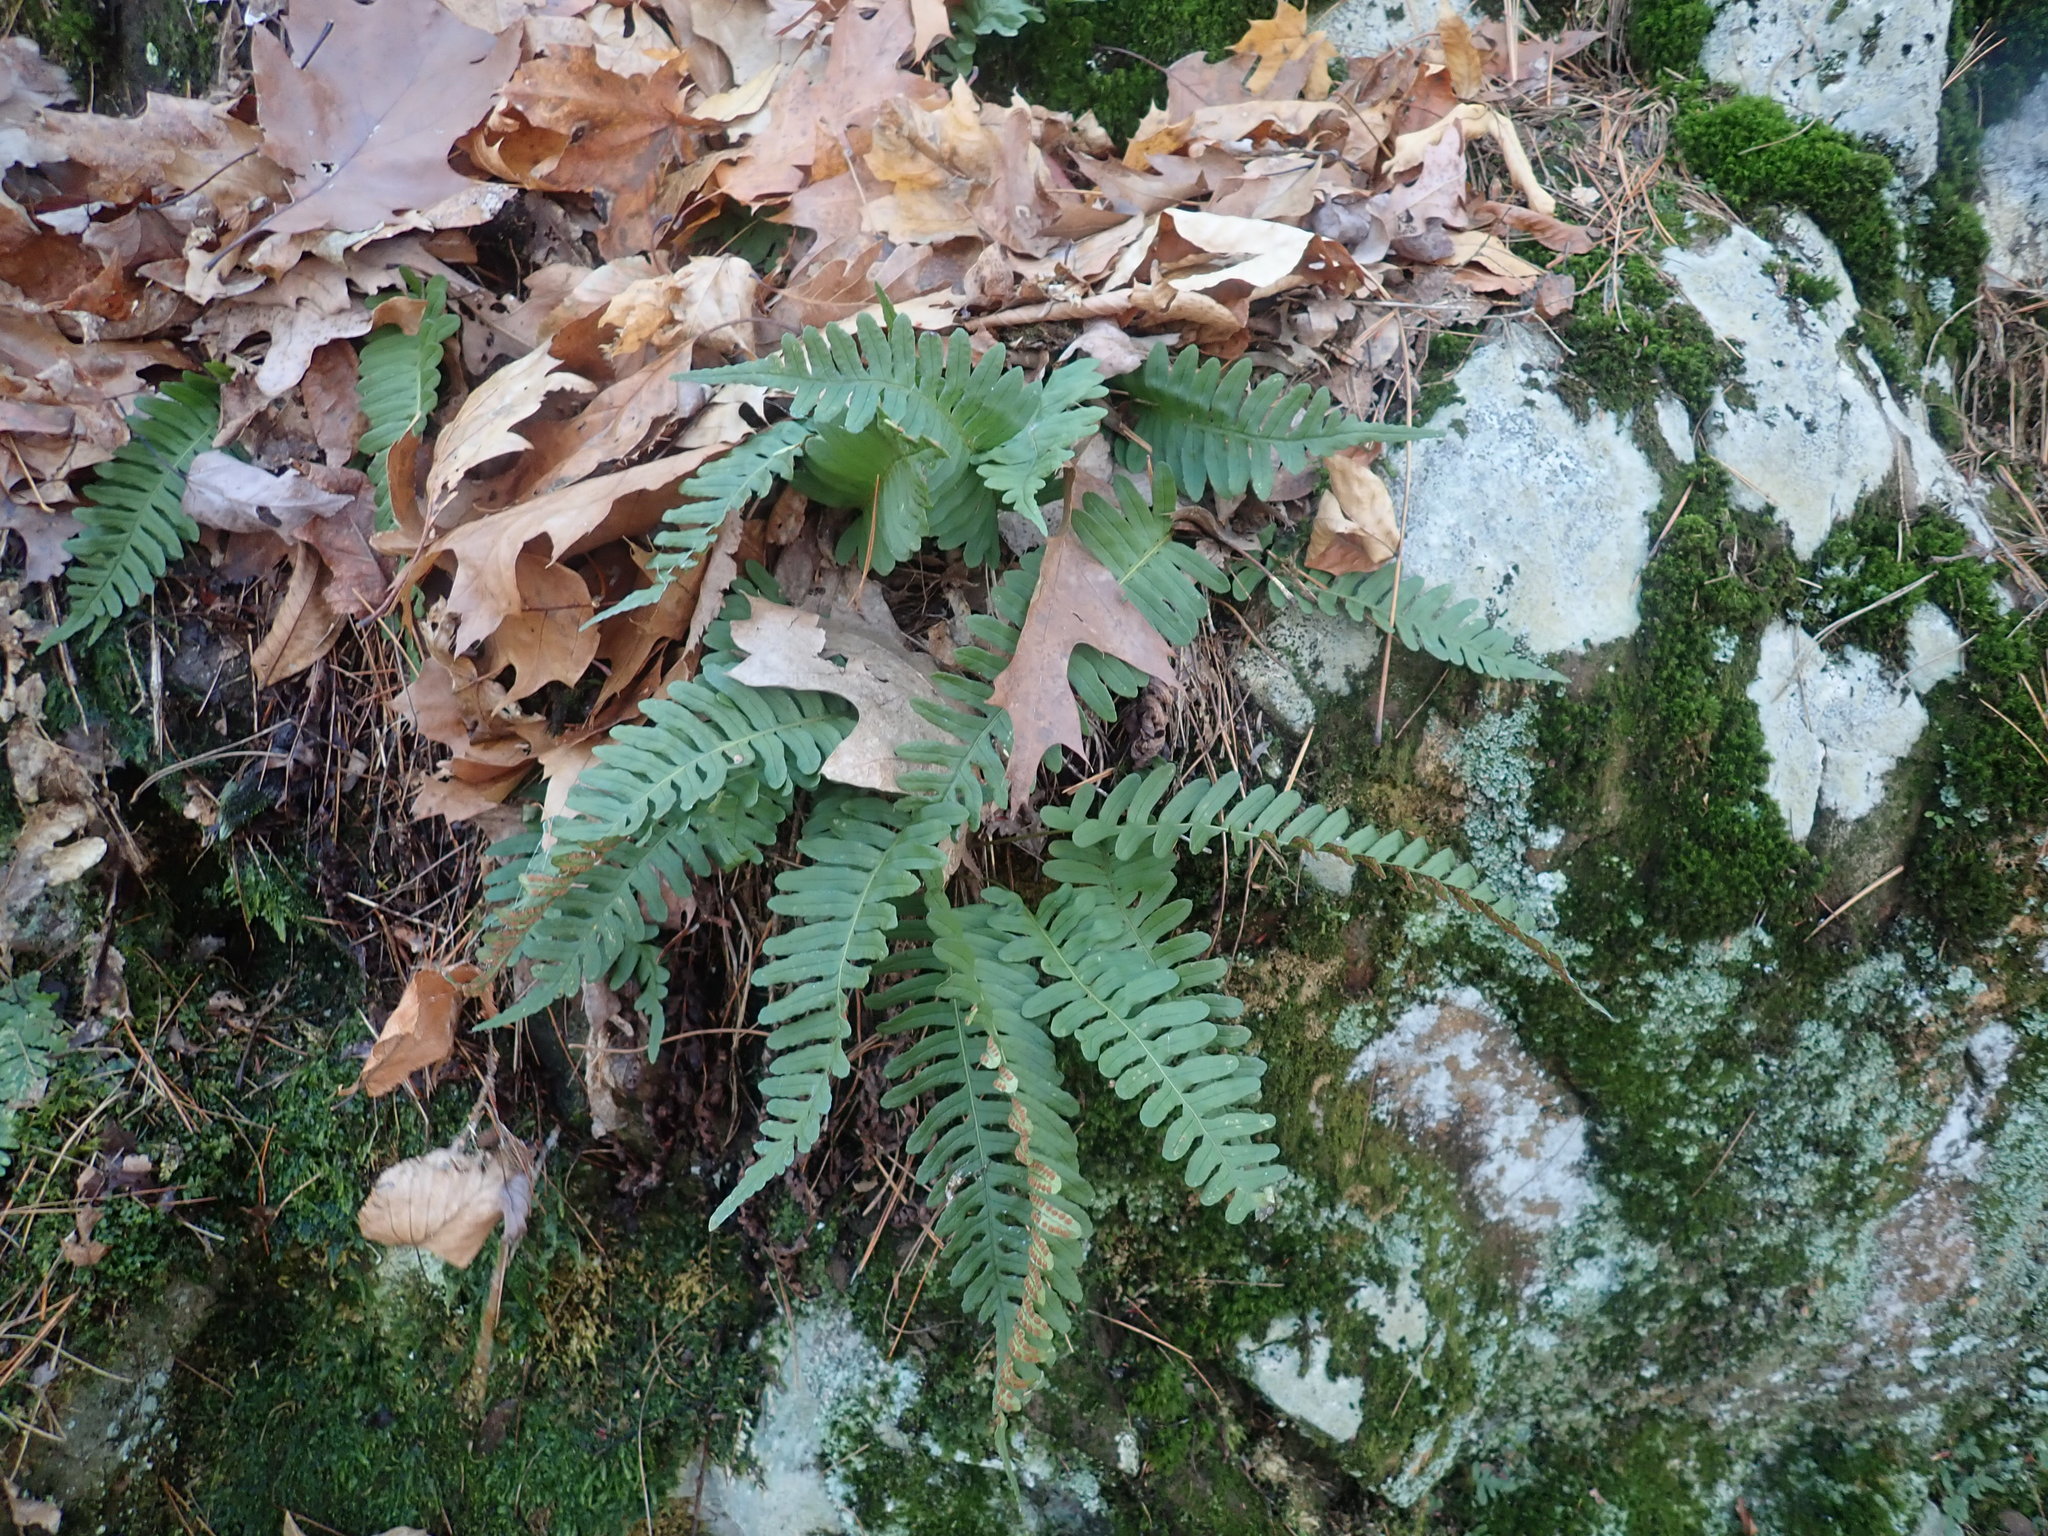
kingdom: Plantae
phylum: Tracheophyta
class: Polypodiopsida
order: Polypodiales
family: Polypodiaceae
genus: Polypodium
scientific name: Polypodium virginianum
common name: American wall fern
